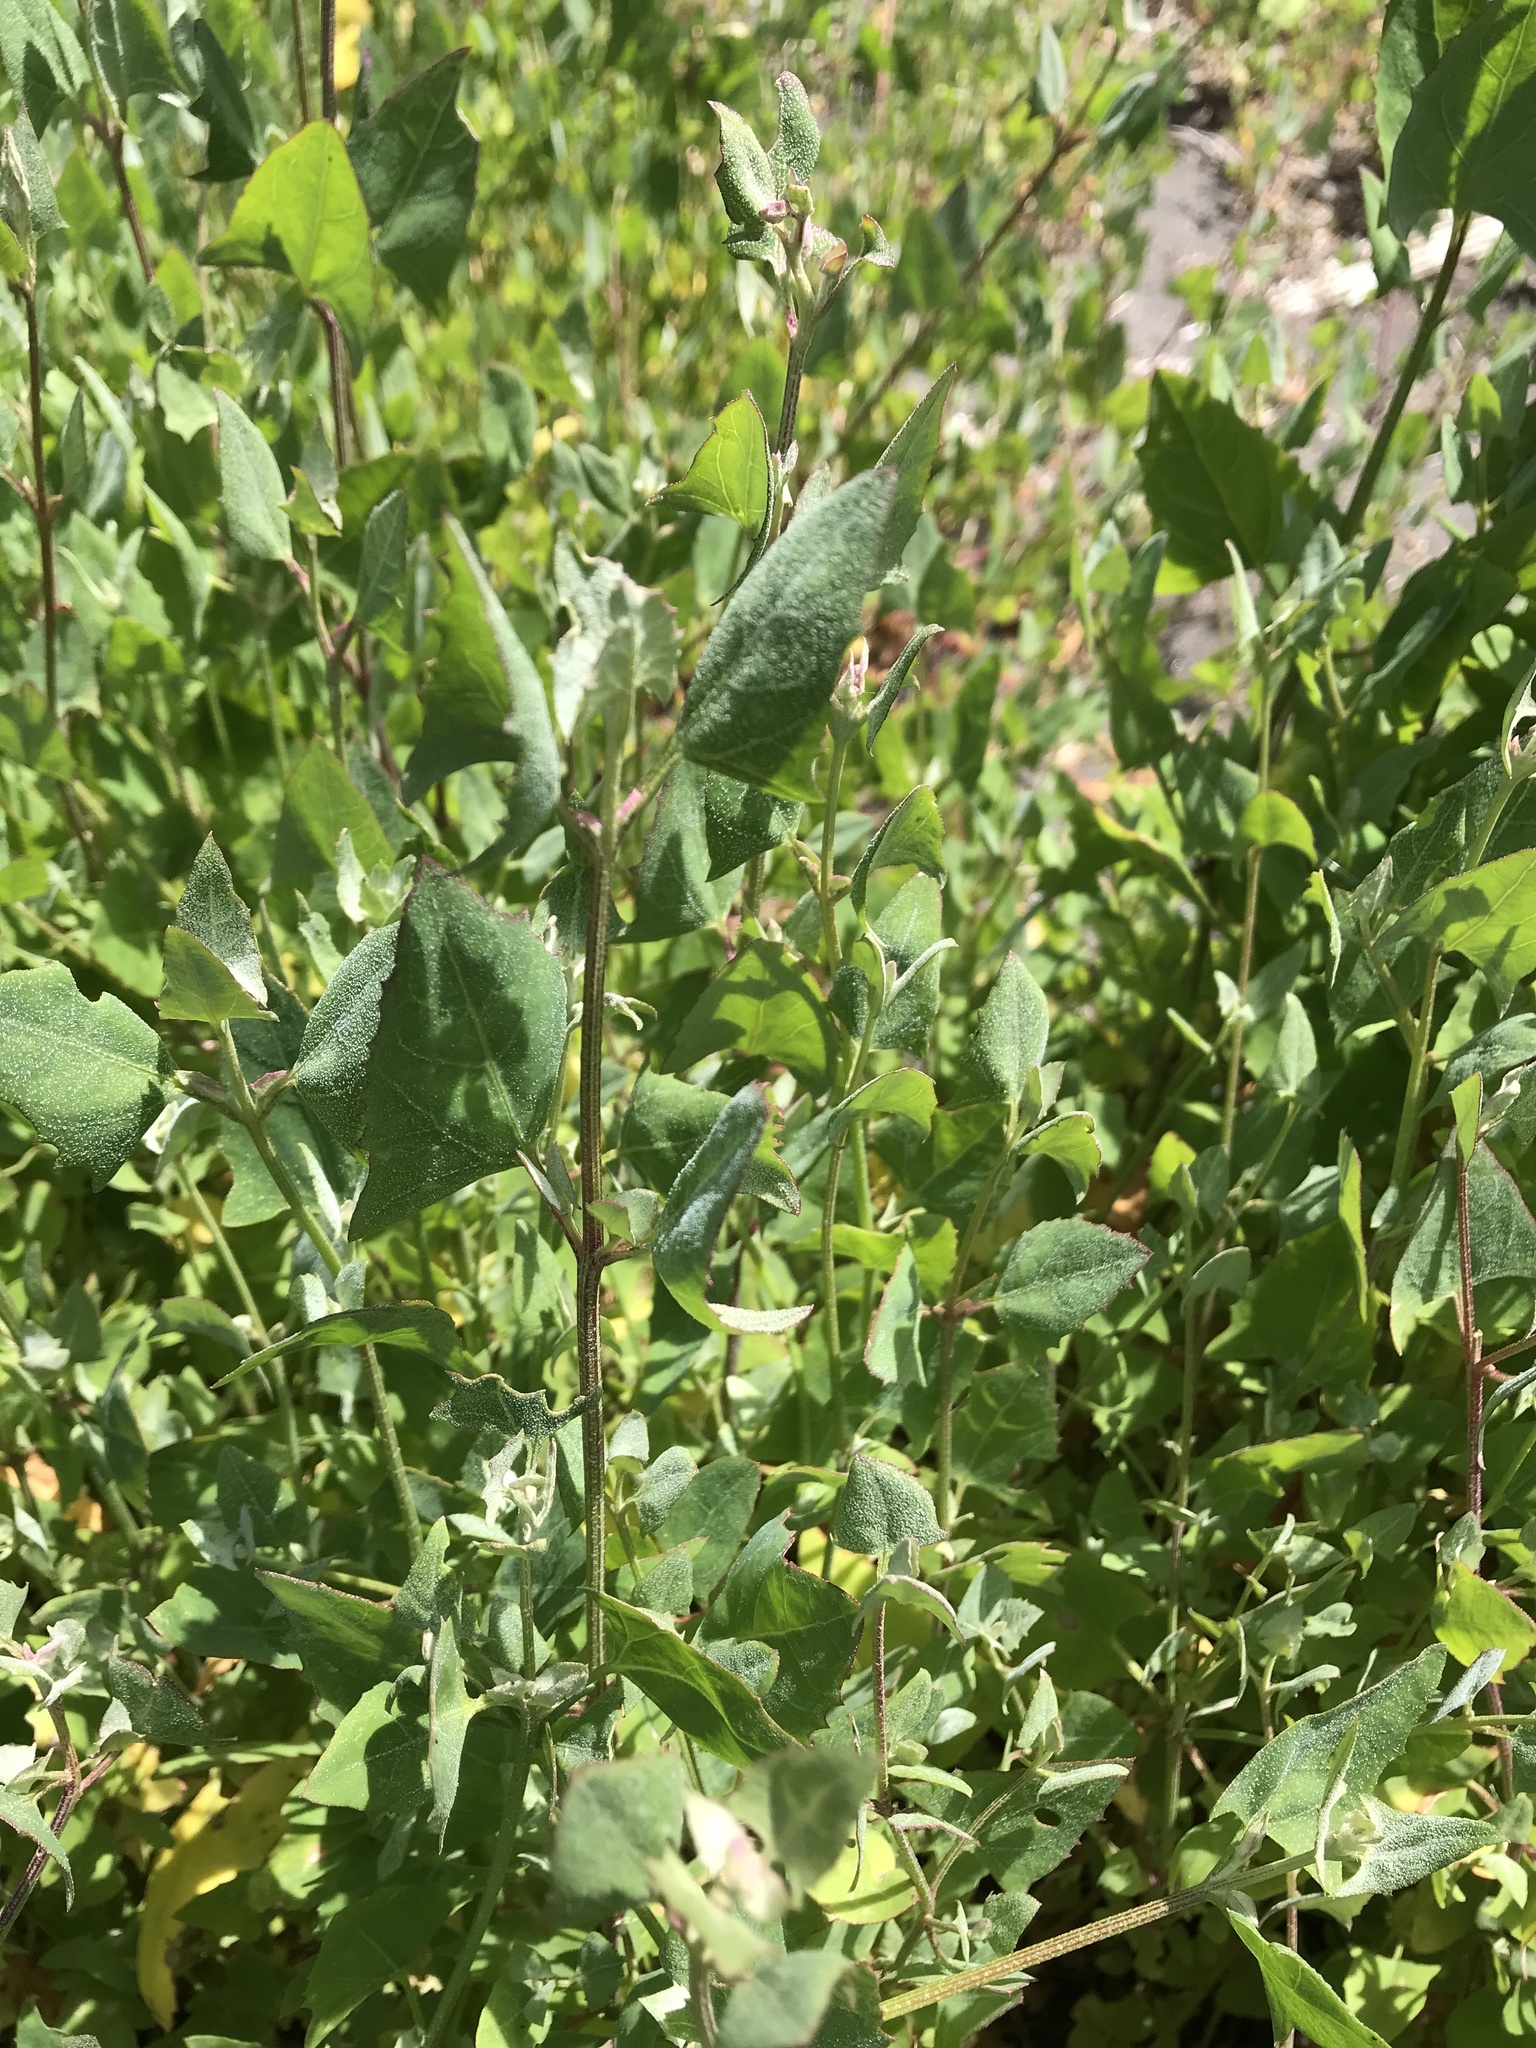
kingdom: Plantae
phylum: Tracheophyta
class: Magnoliopsida
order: Caryophyllales
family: Amaranthaceae
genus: Atriplex
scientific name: Atriplex prostrata
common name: Spear-leaved orache
